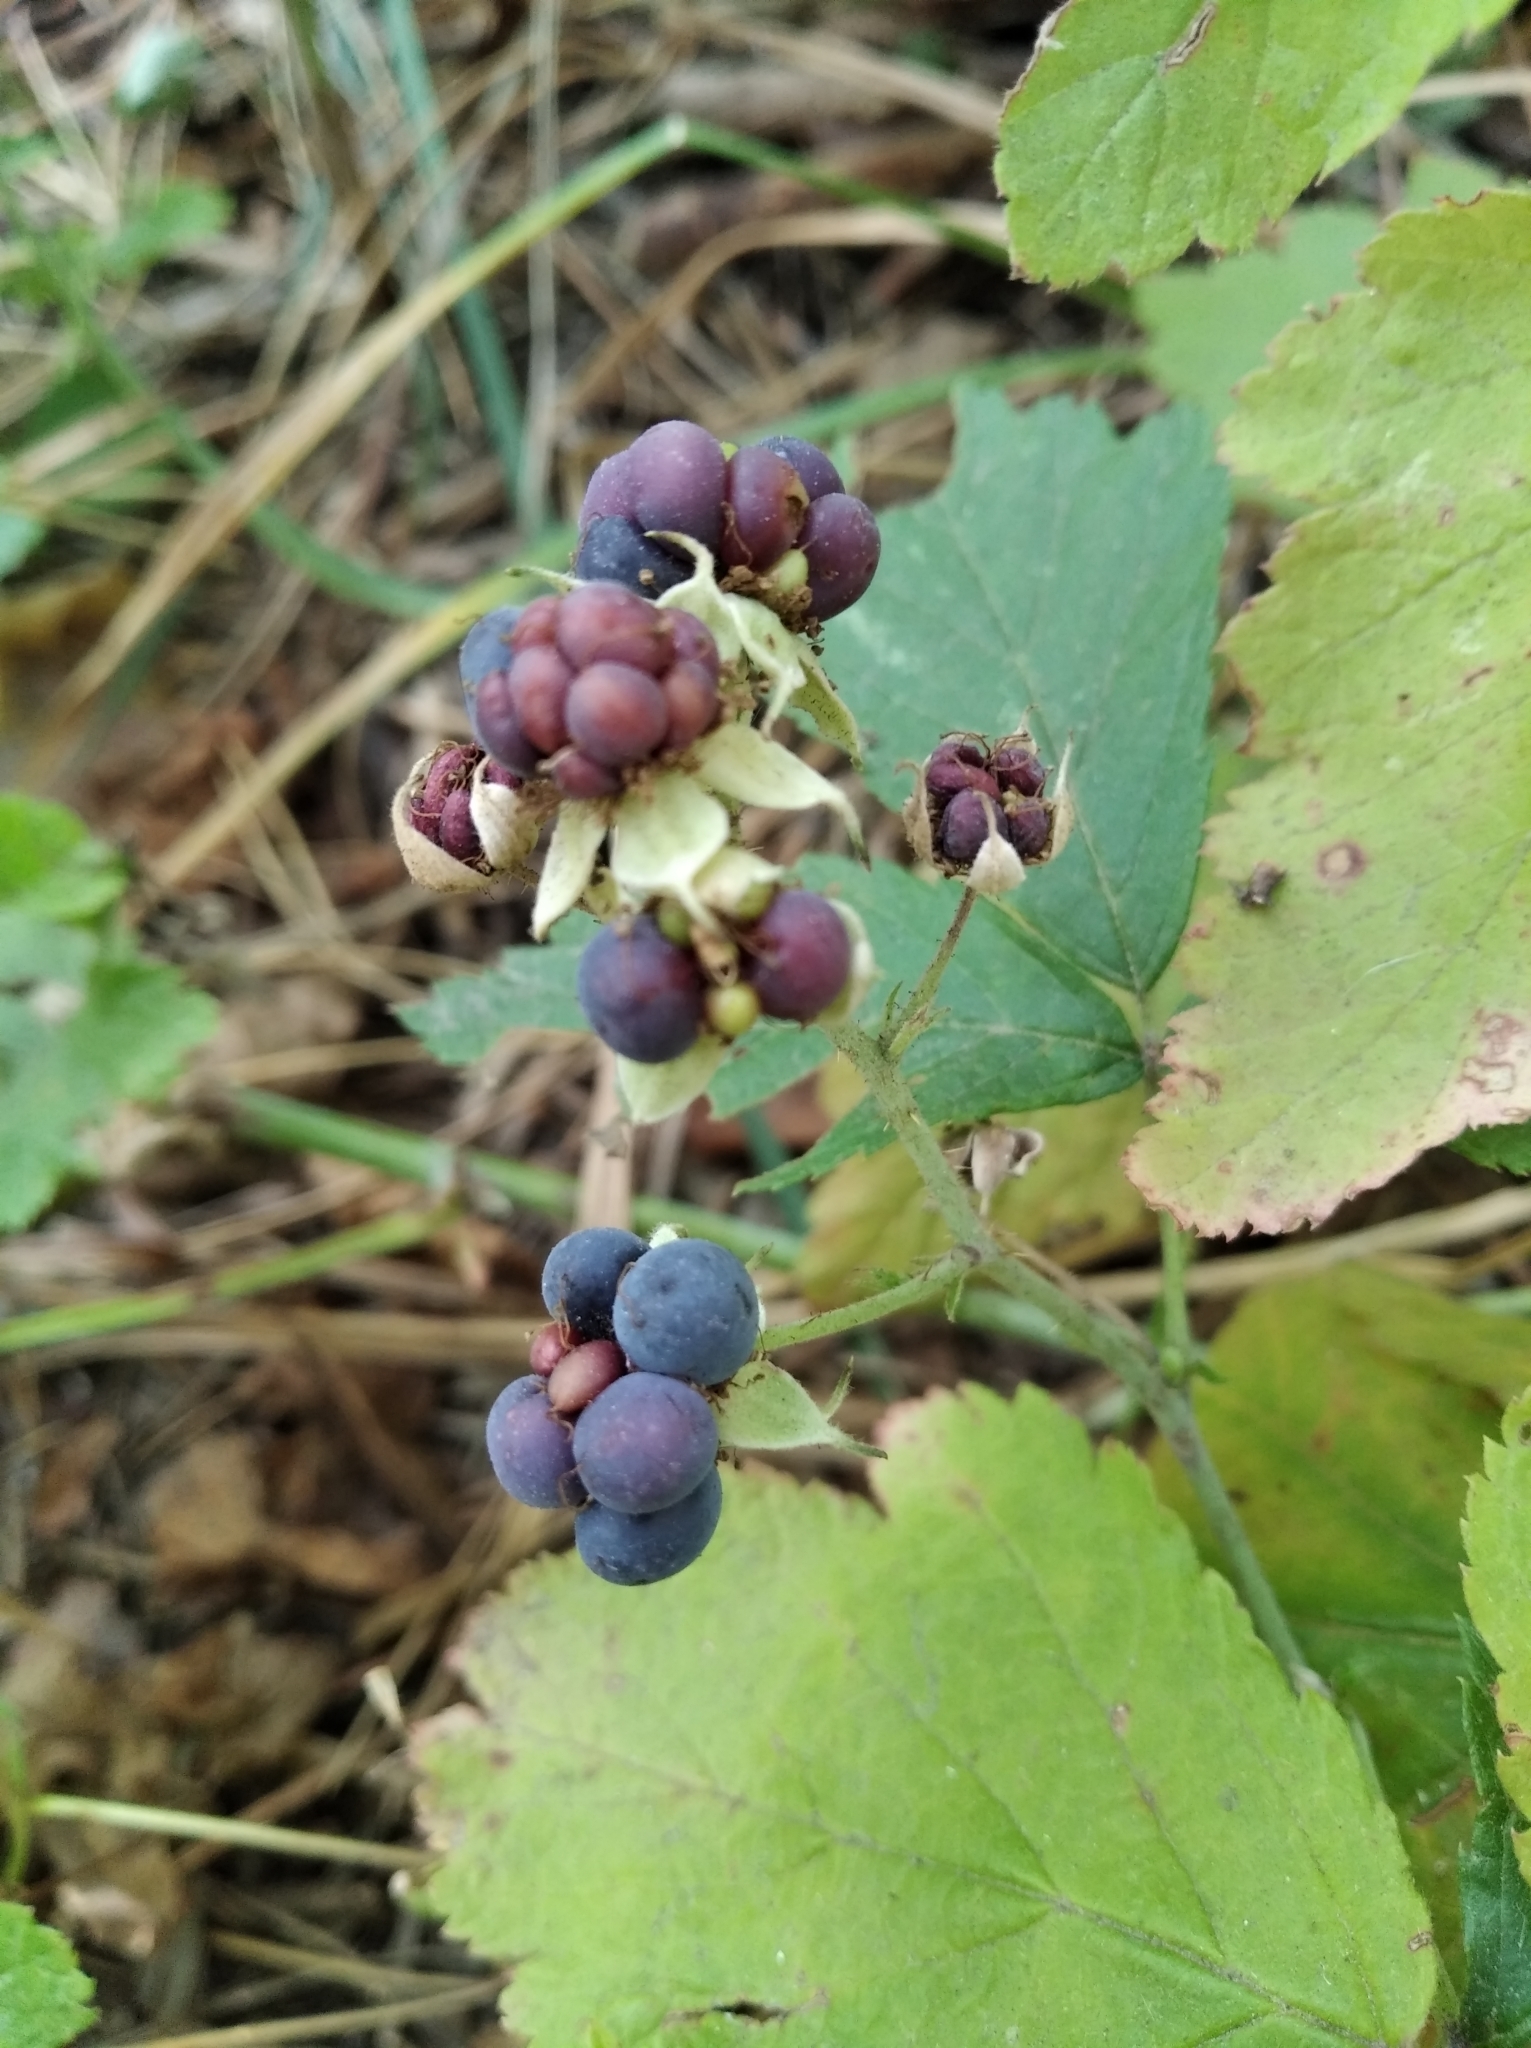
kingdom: Plantae
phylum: Tracheophyta
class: Magnoliopsida
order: Rosales
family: Rosaceae
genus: Rubus
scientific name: Rubus caesius
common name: Dewberry
